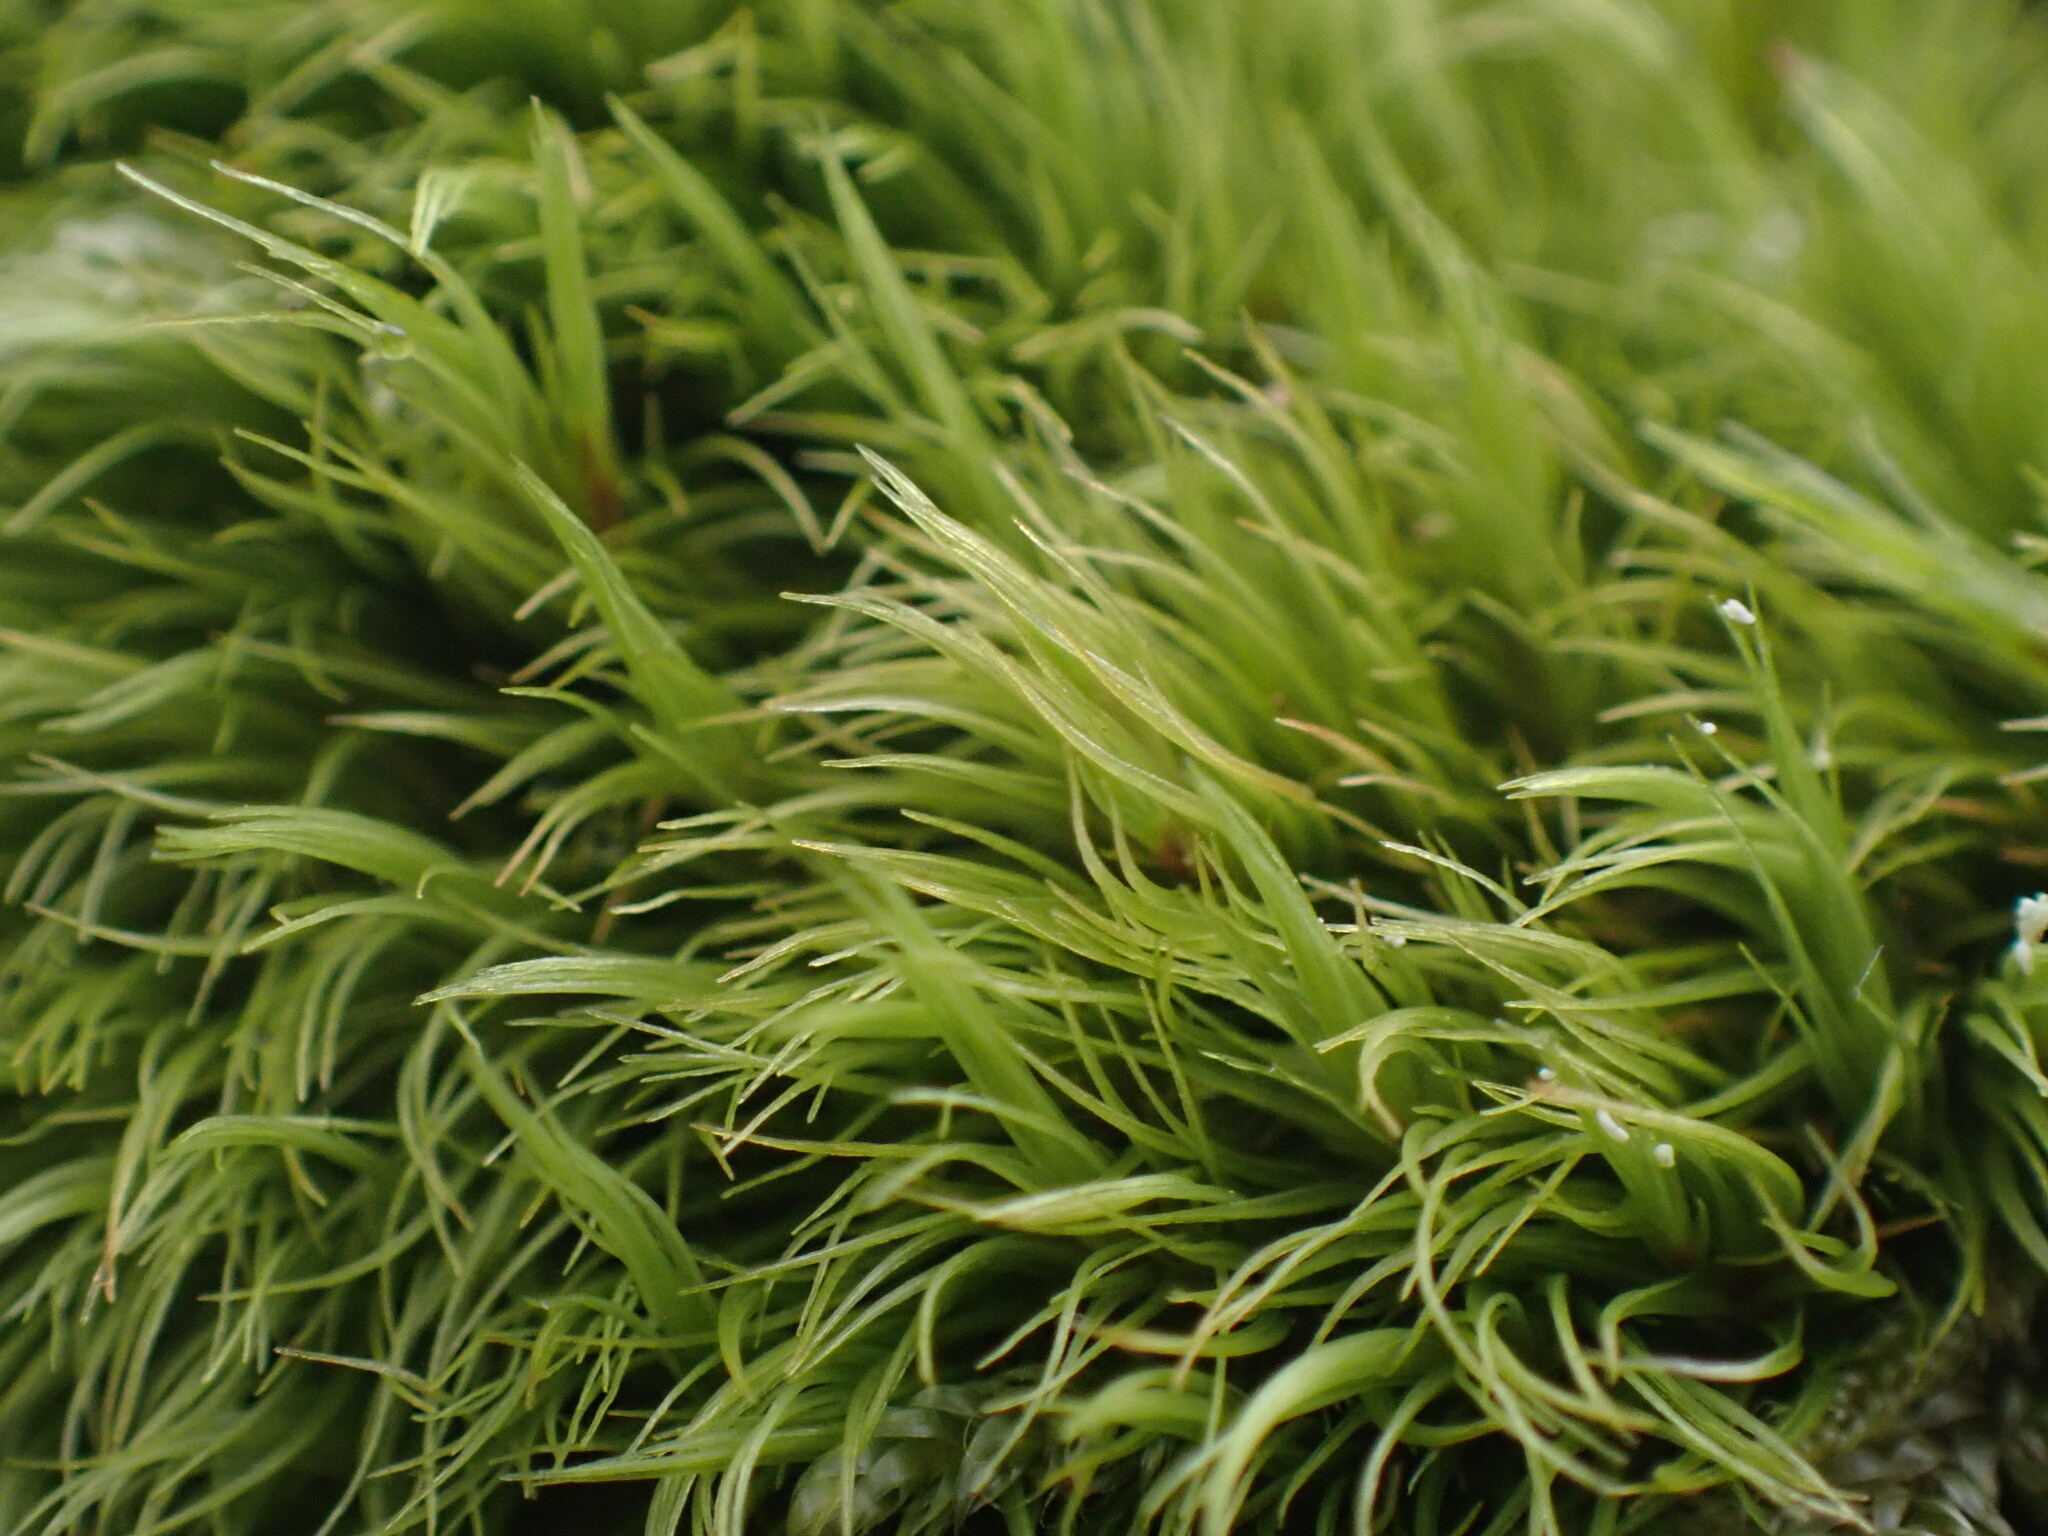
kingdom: Plantae
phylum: Bryophyta
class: Bryopsida
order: Dicranales
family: Dicranaceae
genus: Dicranum
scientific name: Dicranum scoparium
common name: Broom fork-moss
